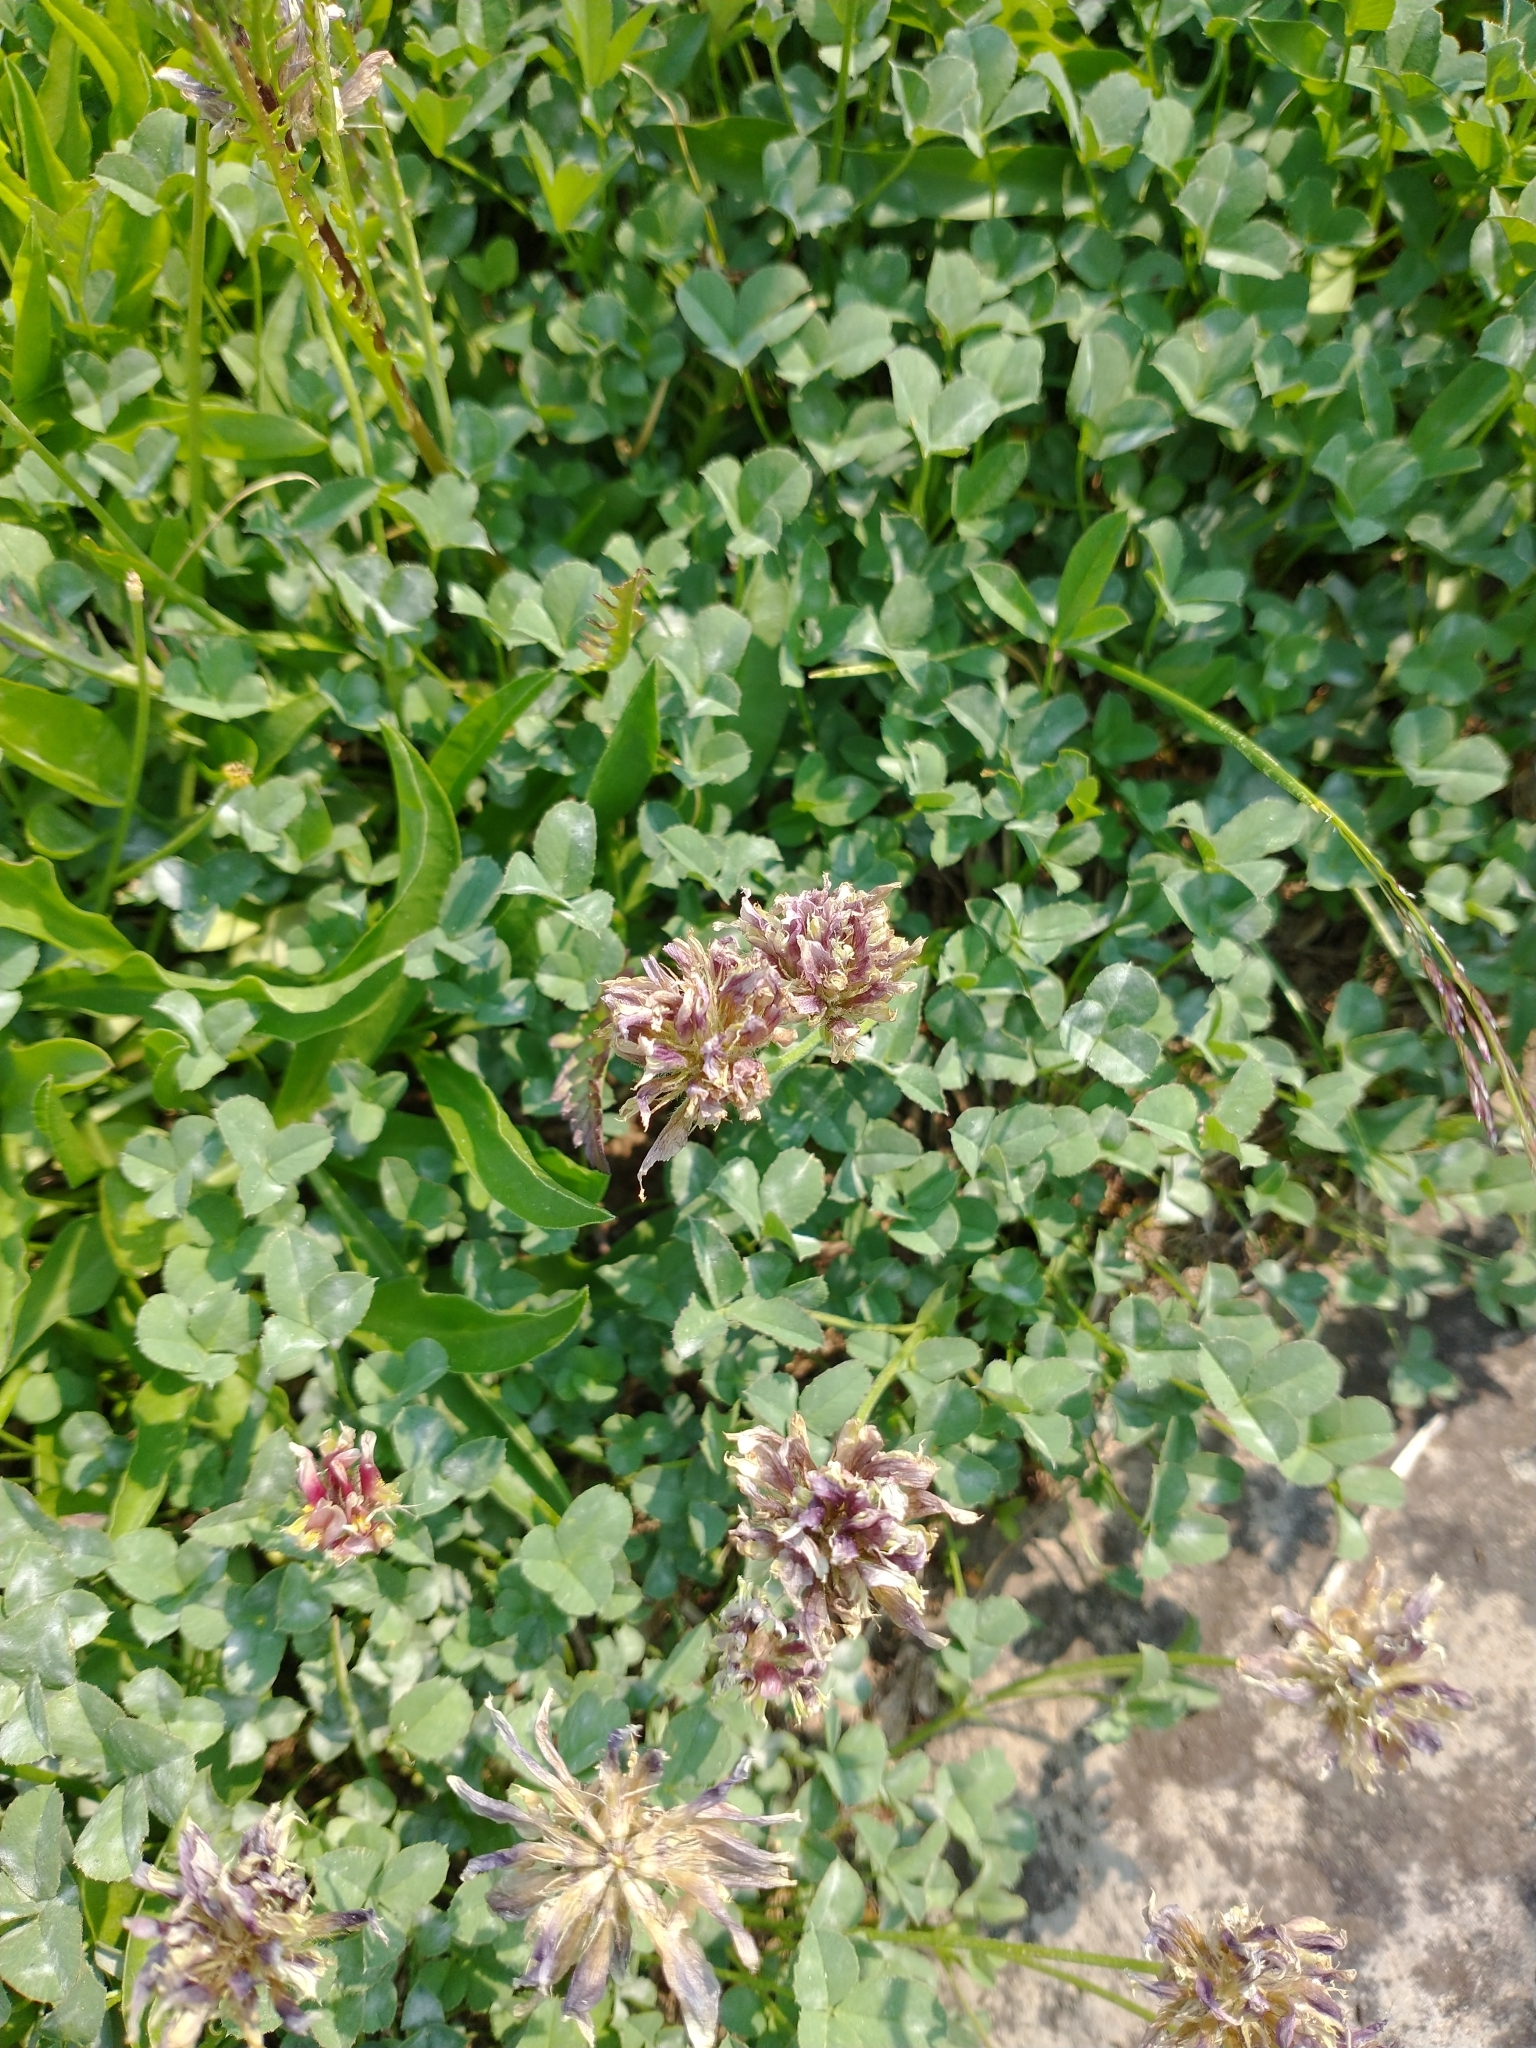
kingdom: Plantae
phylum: Tracheophyta
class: Magnoliopsida
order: Fabales
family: Fabaceae
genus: Trifolium
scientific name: Trifolium longipes
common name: Long-stalk clover
